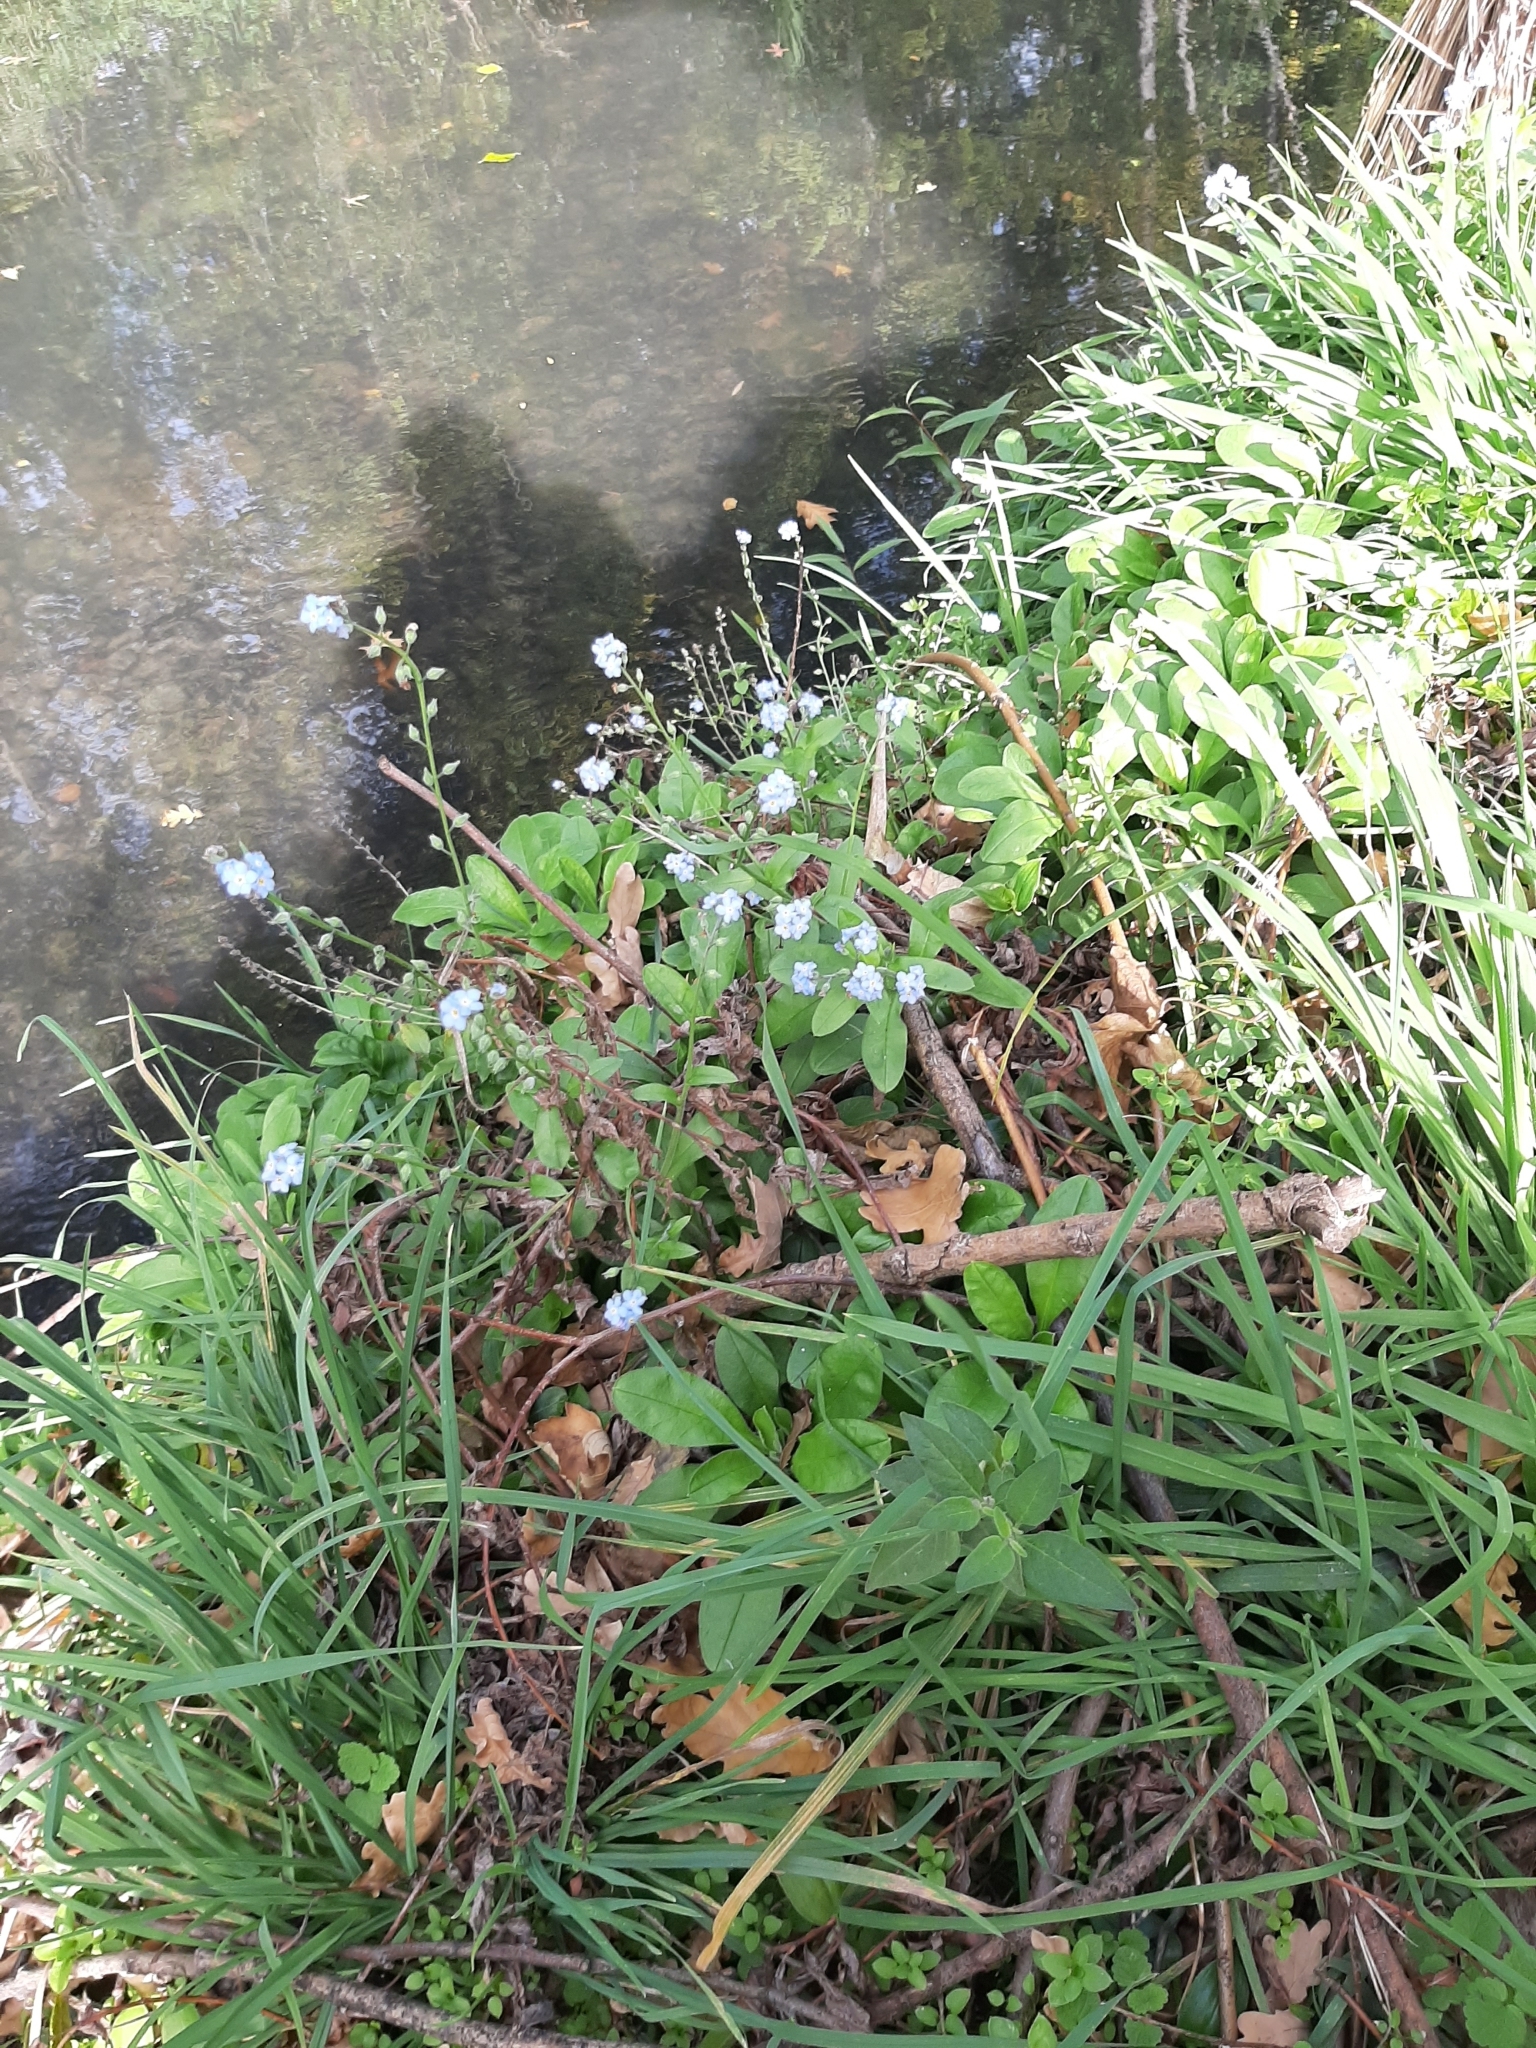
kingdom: Plantae
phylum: Tracheophyta
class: Magnoliopsida
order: Boraginales
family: Boraginaceae
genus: Myosotis
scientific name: Myosotis sylvatica
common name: Wood forget-me-not
